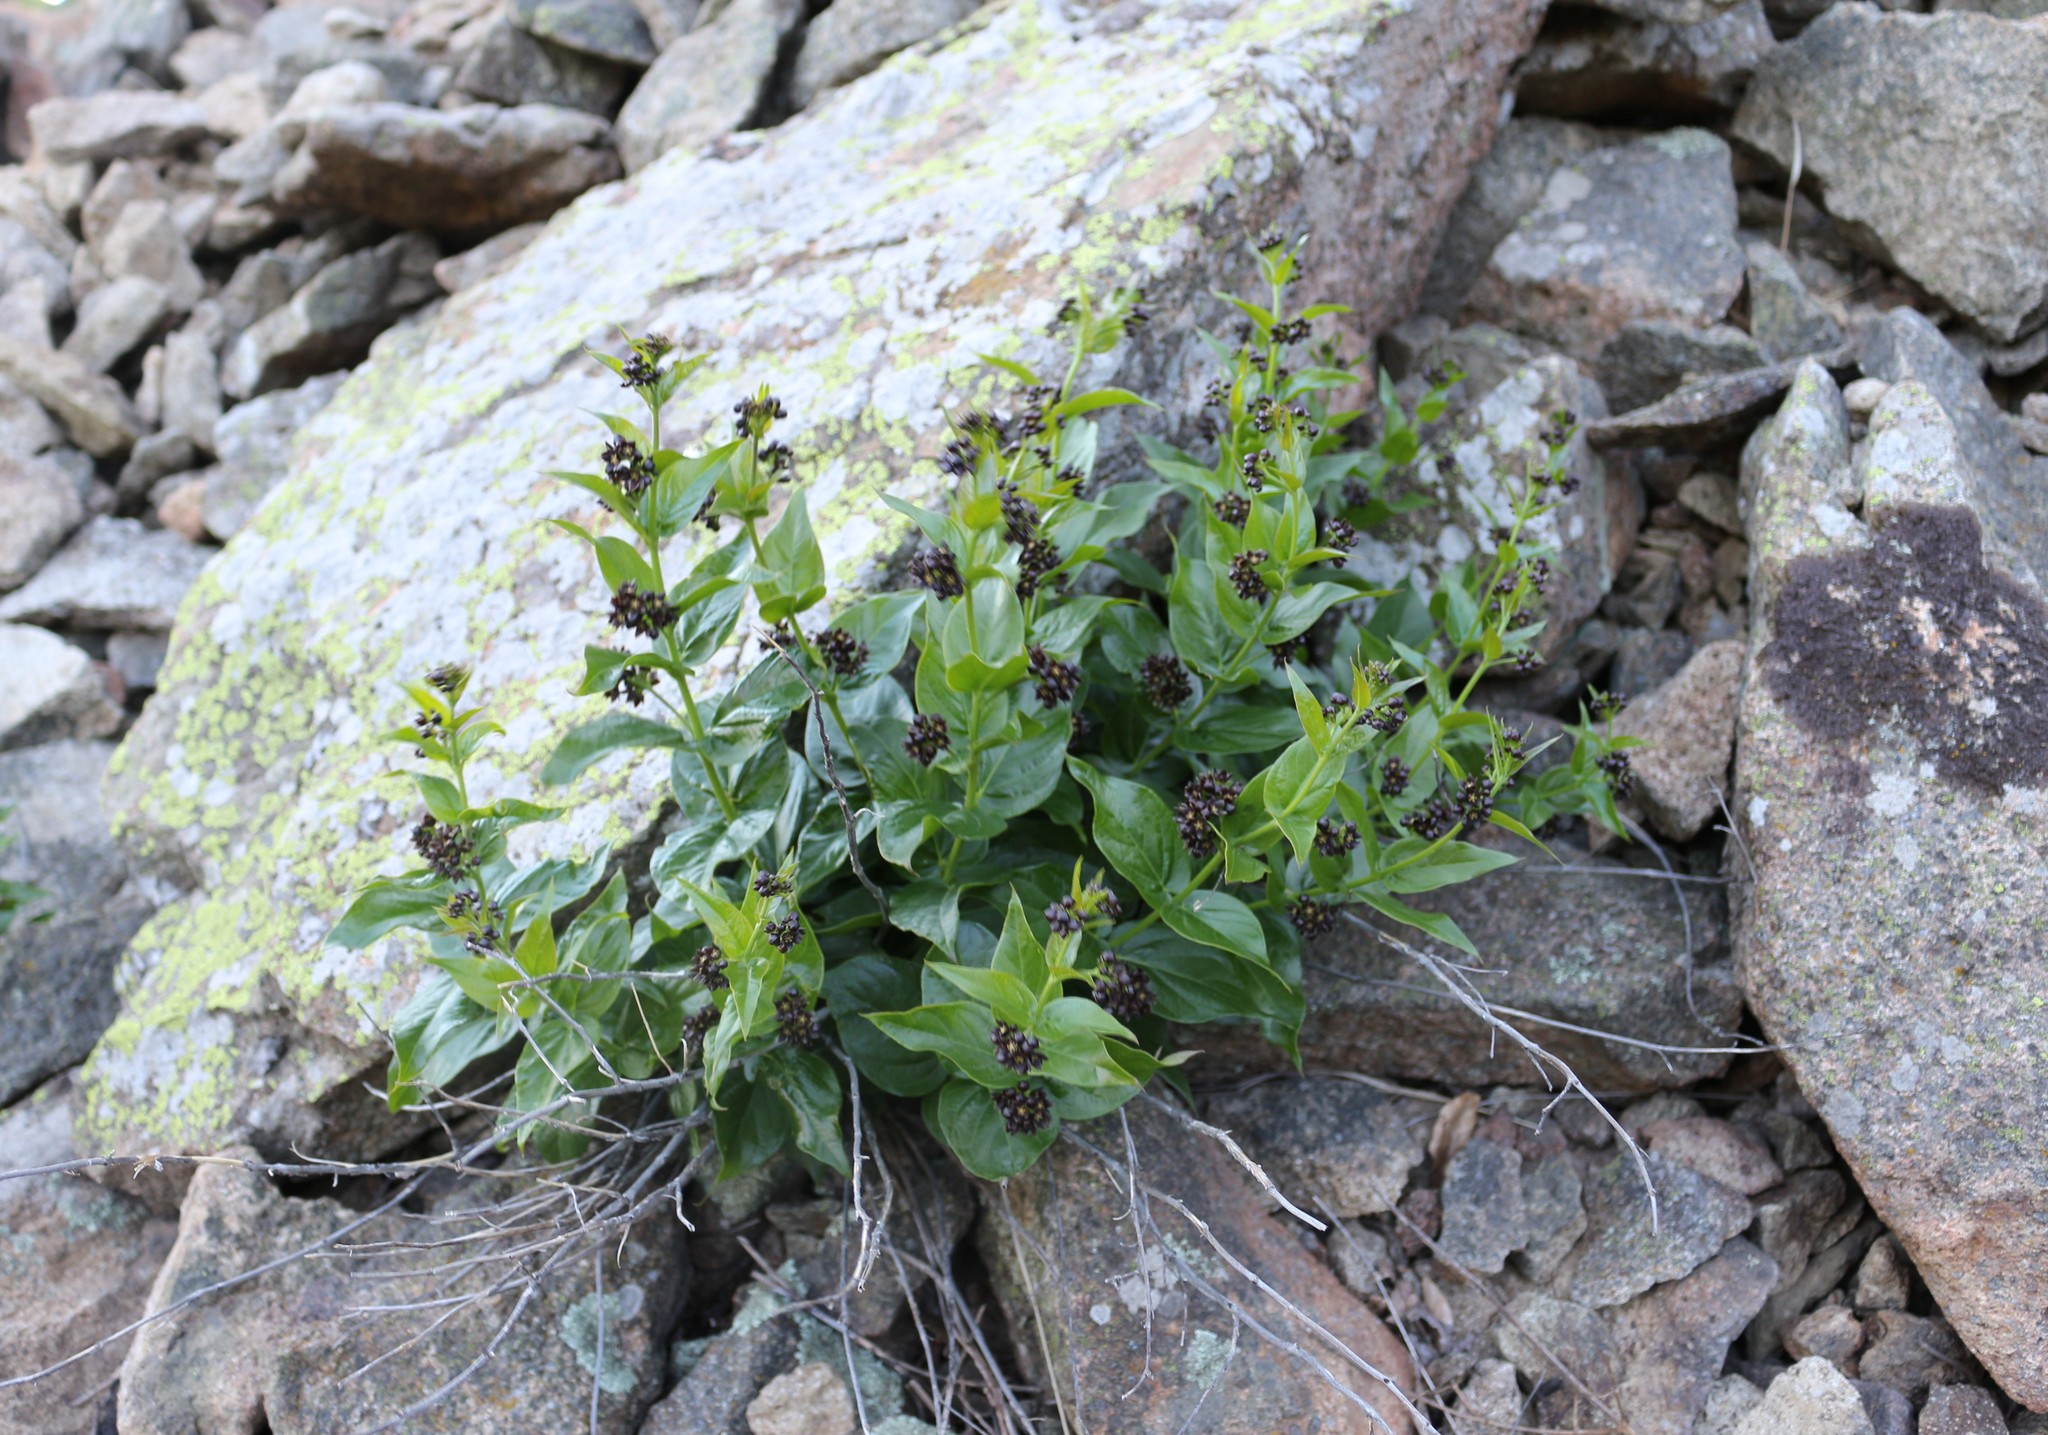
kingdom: Plantae
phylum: Tracheophyta
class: Magnoliopsida
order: Gentianales
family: Apocynaceae
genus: Vincetoxicum
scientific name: Vincetoxicum funebre
